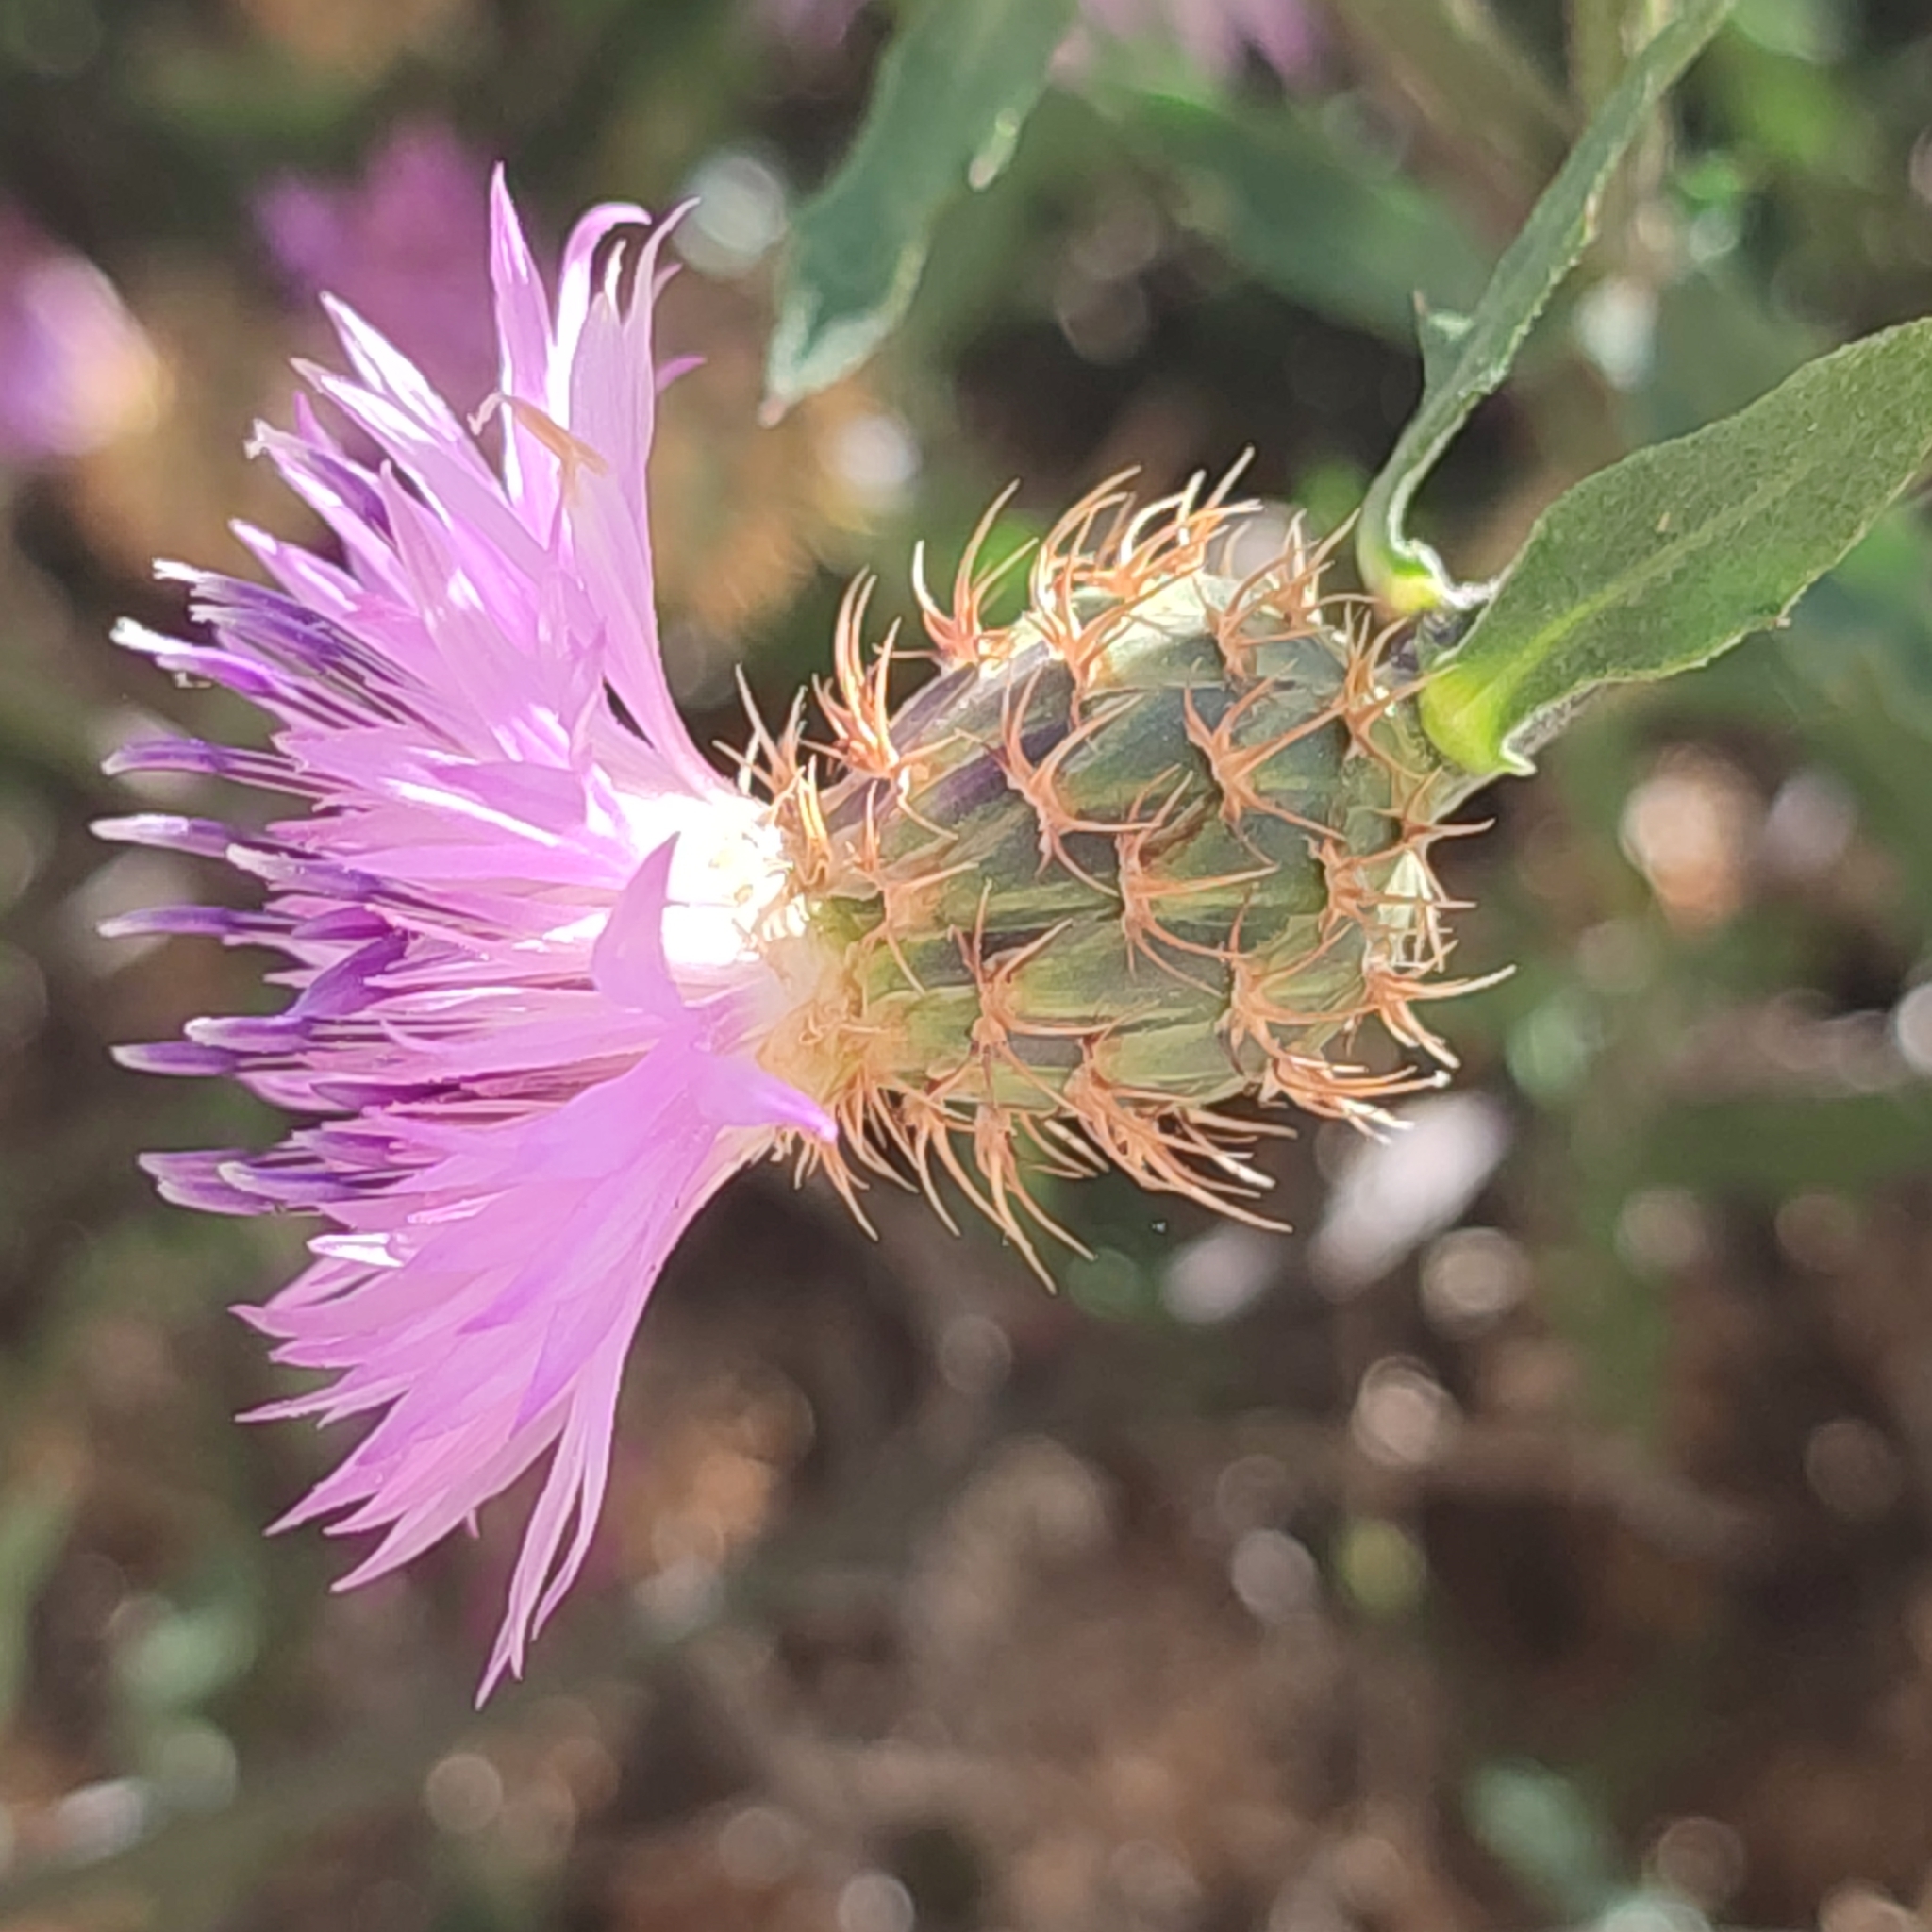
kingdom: Plantae
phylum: Tracheophyta
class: Magnoliopsida
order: Asterales
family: Asteraceae
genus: Centaurea
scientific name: Centaurea aspera
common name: Rough star-thistle
